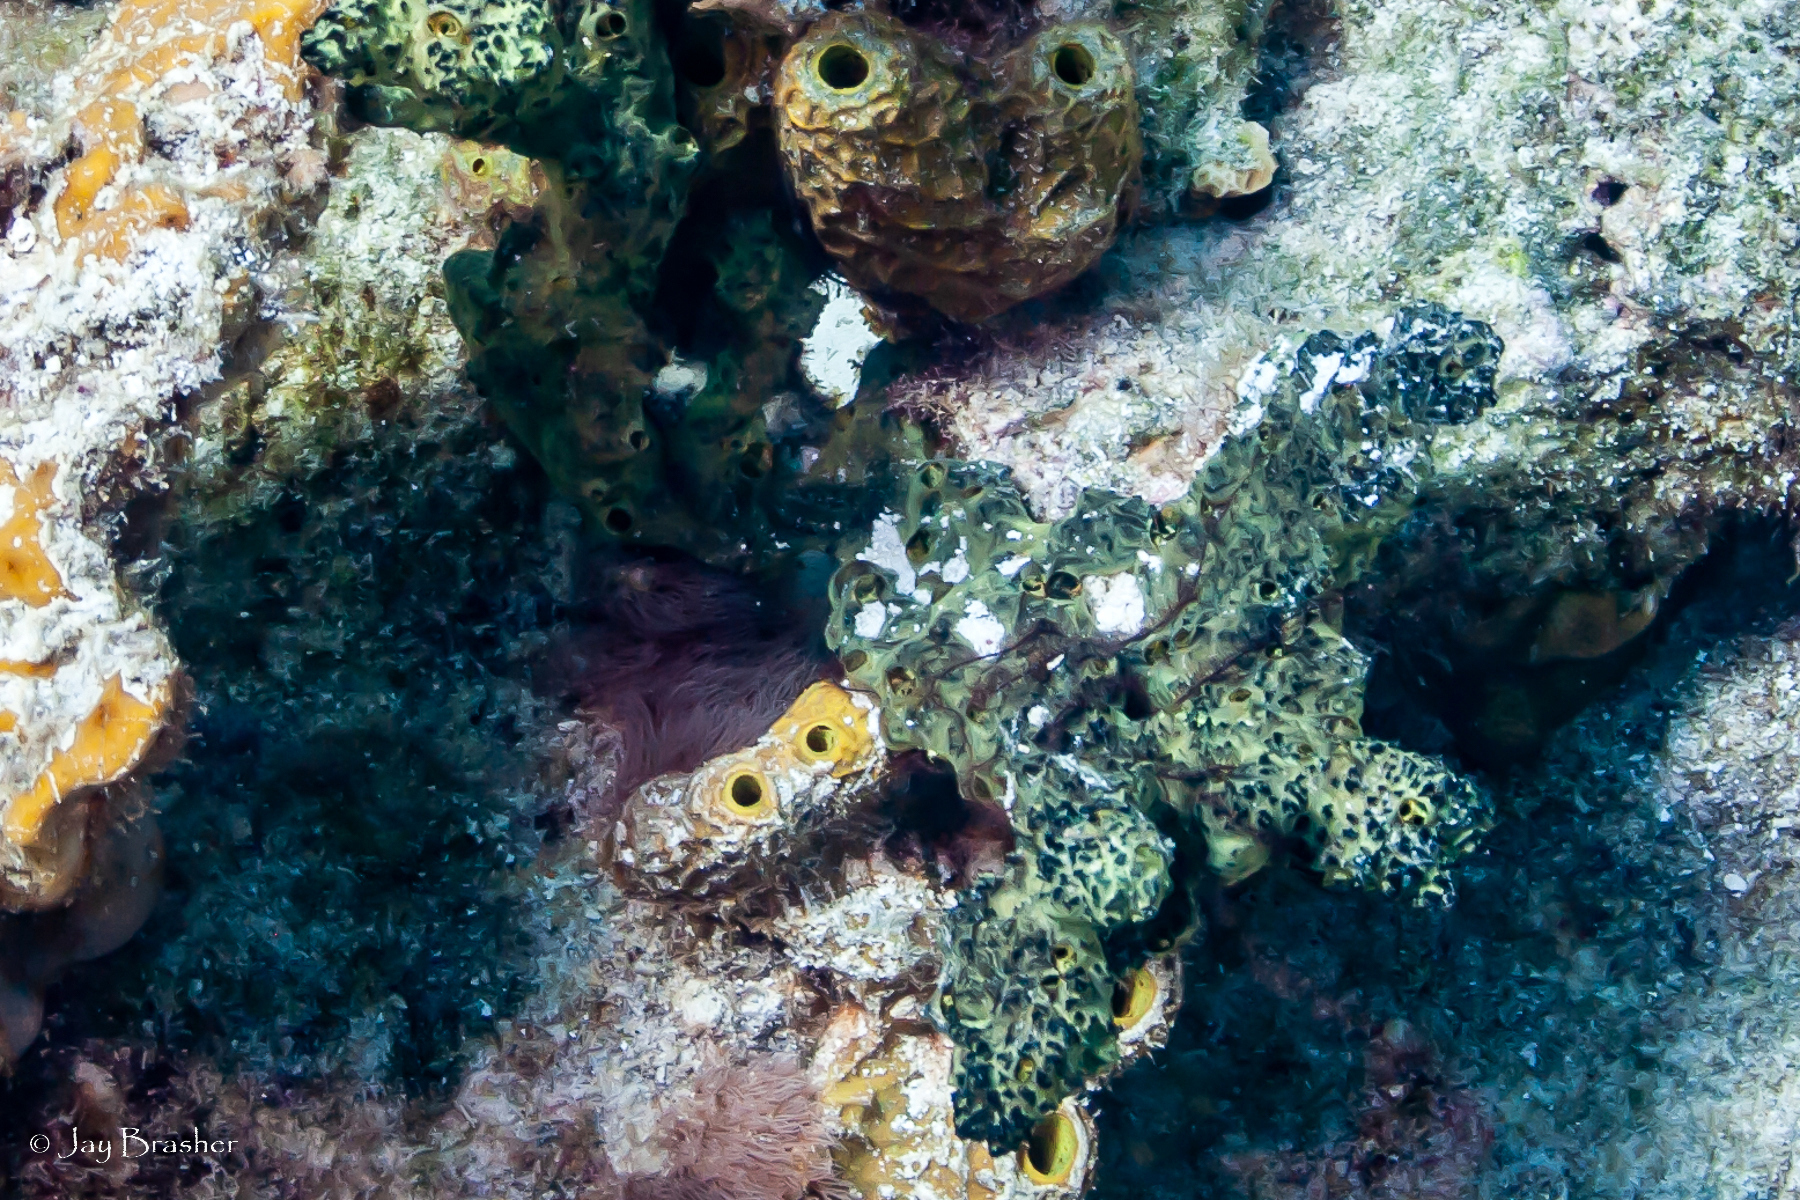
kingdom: Animalia
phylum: Porifera
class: Demospongiae
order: Poecilosclerida
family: Iotrochotidae
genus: Iotrochota
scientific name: Iotrochota birotulata
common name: Purple bleeding sponge
